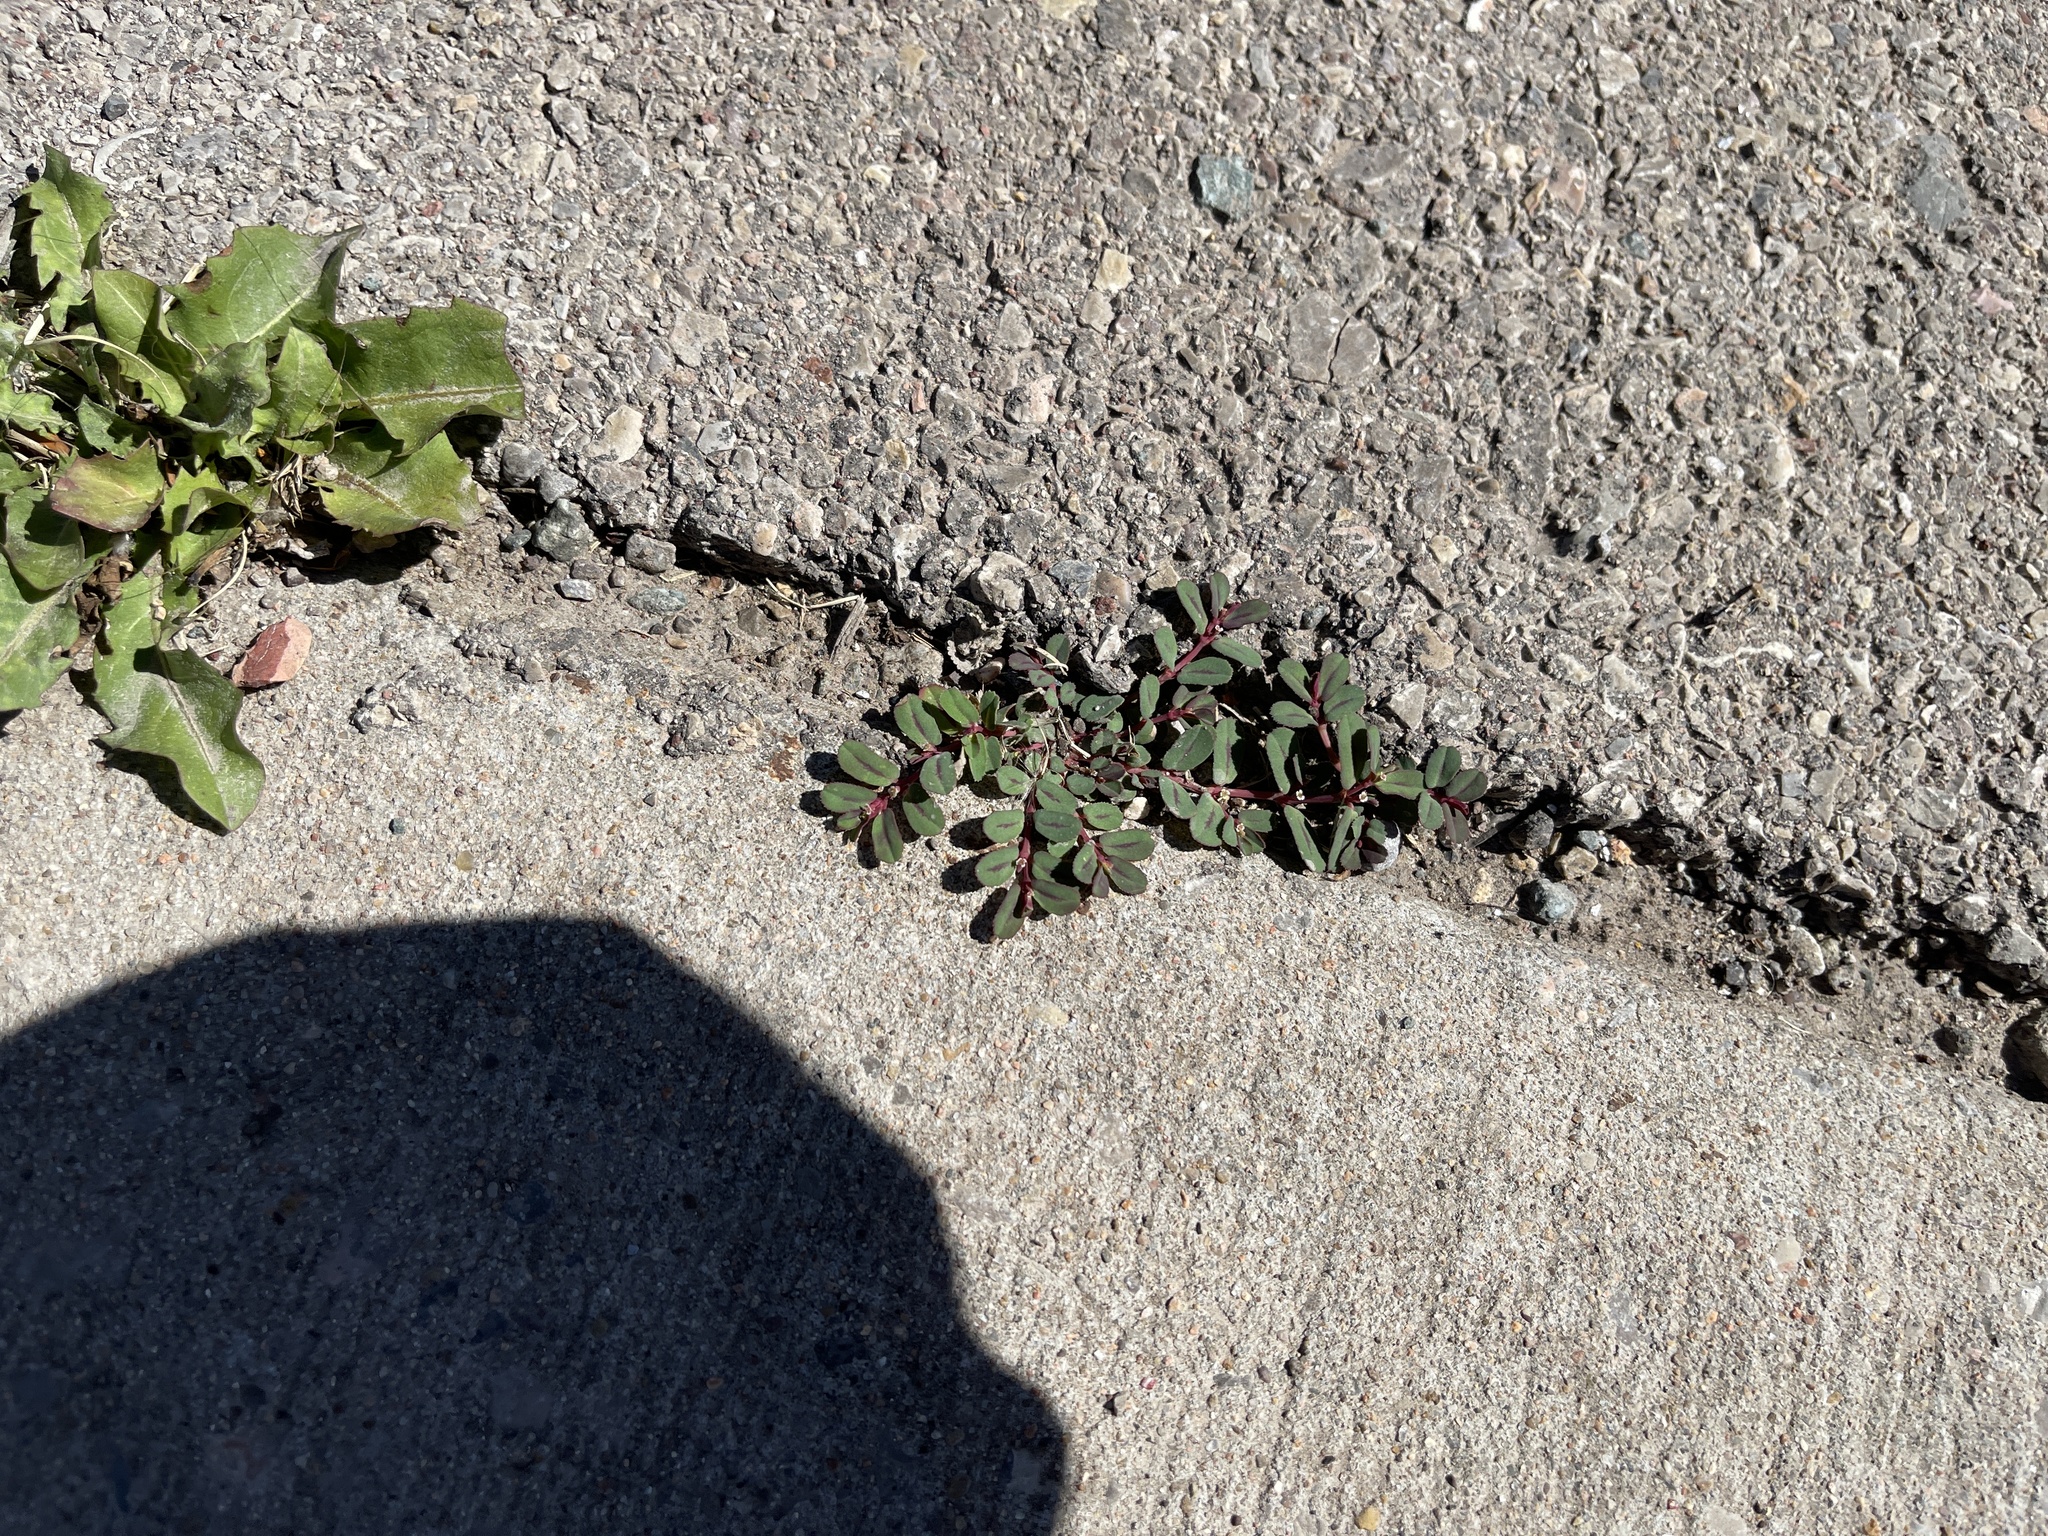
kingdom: Plantae
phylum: Tracheophyta
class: Magnoliopsida
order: Malpighiales
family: Euphorbiaceae
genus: Euphorbia
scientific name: Euphorbia serpillifolia
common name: Thyme-leaf spurge
